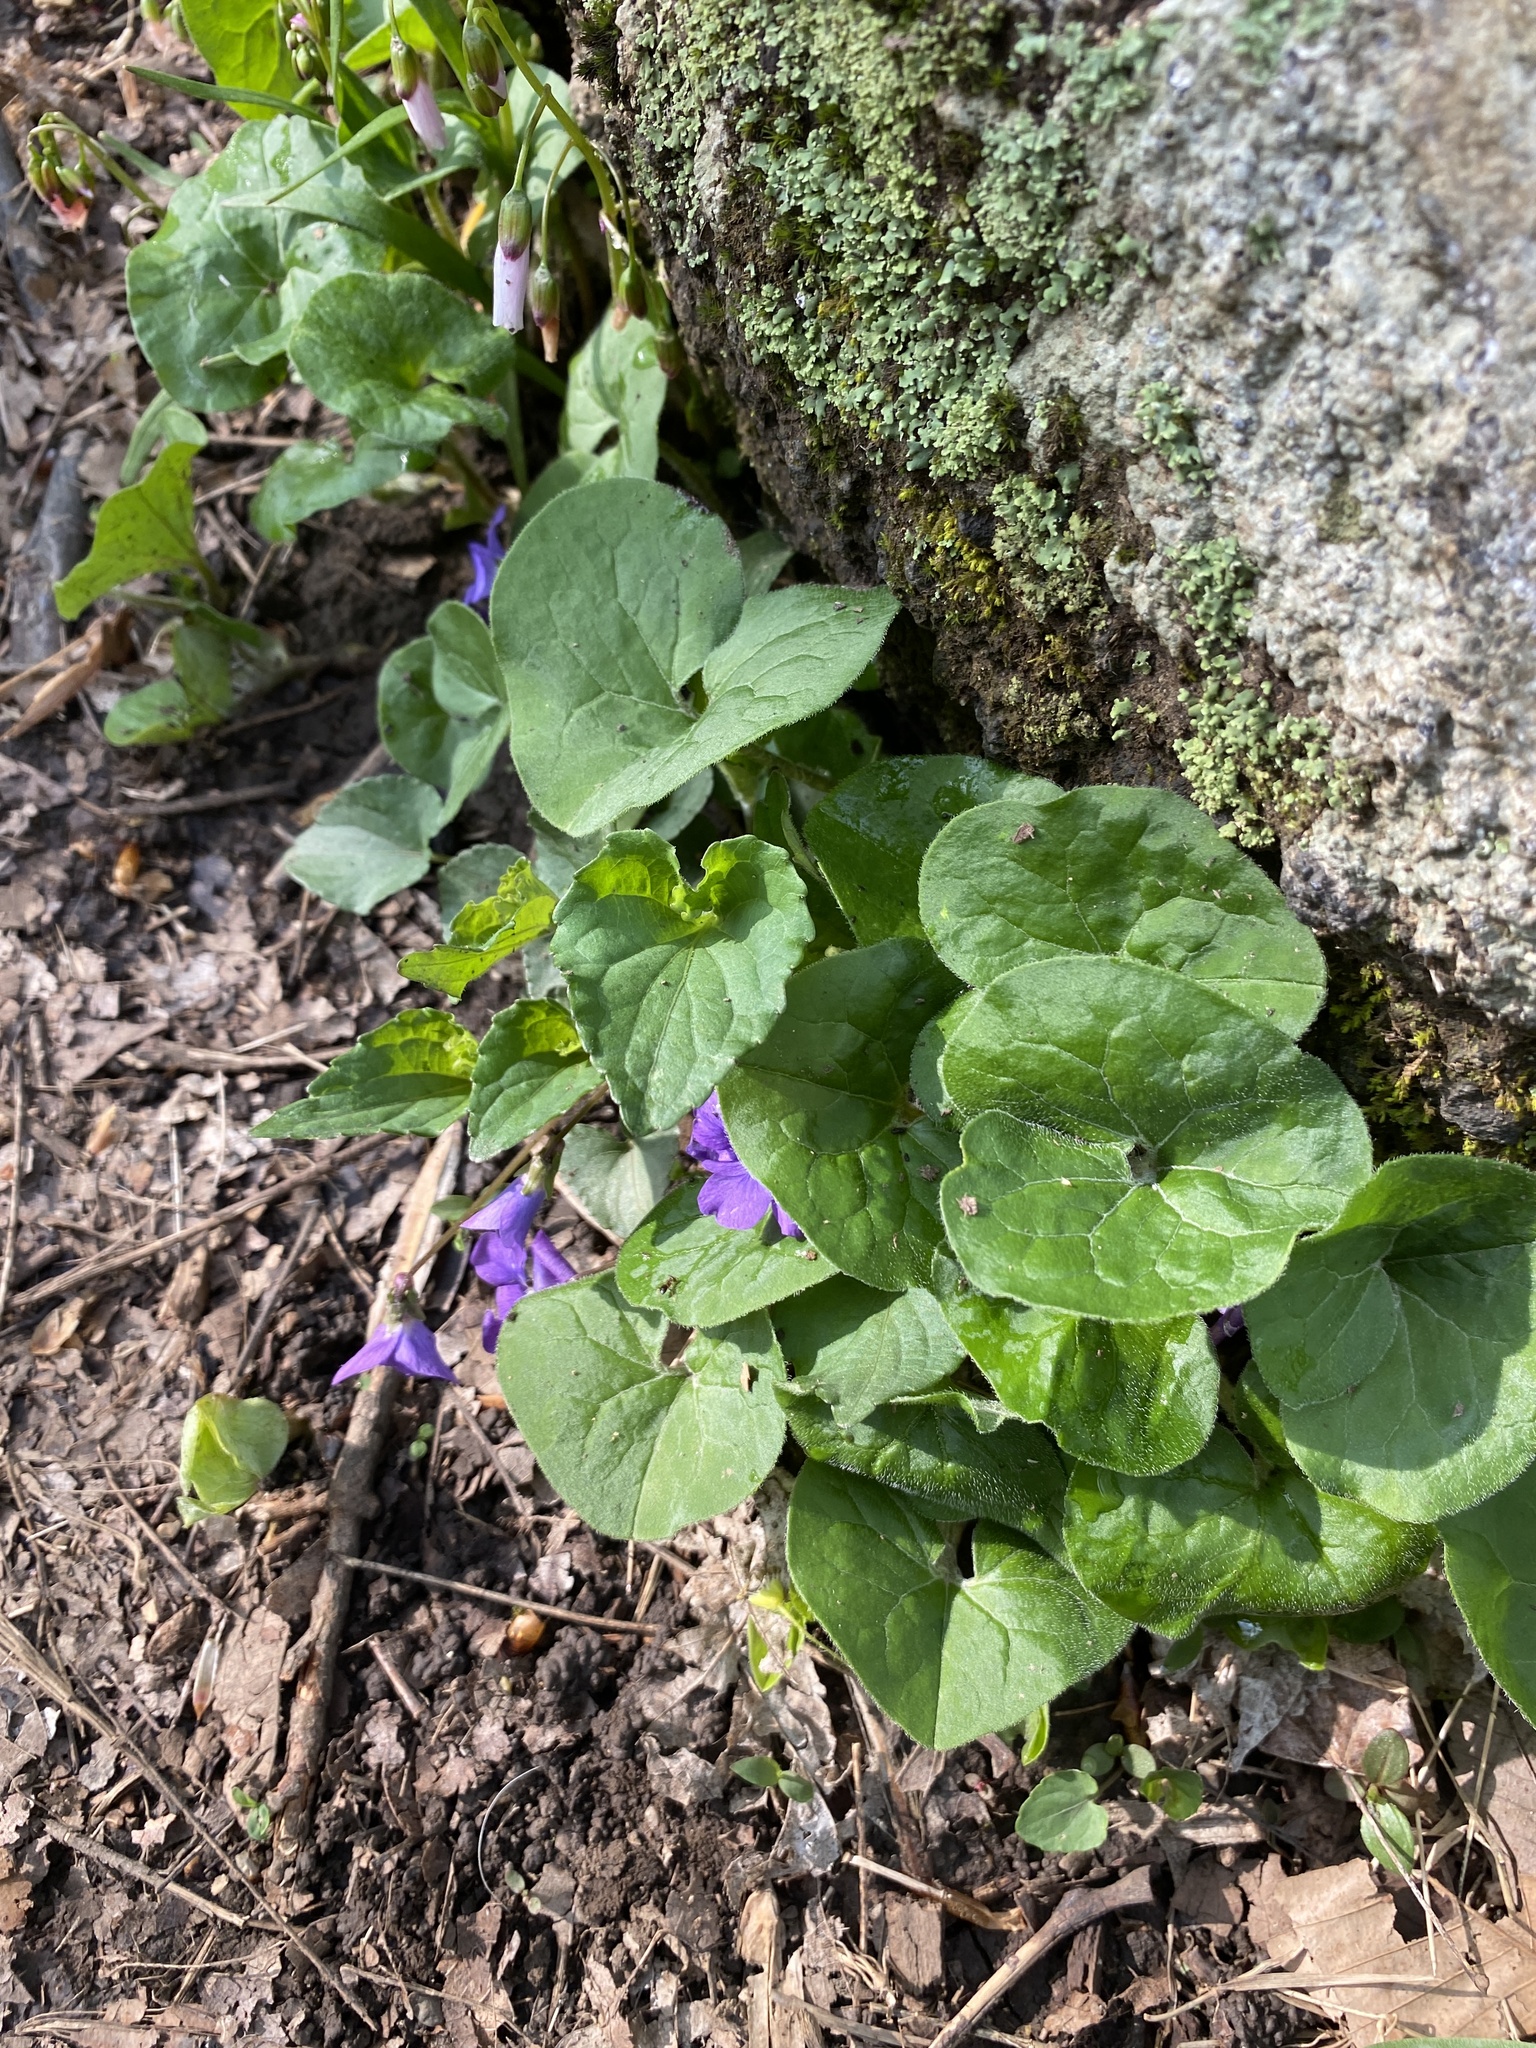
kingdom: Plantae
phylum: Tracheophyta
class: Magnoliopsida
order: Piperales
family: Aristolochiaceae
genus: Asarum
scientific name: Asarum canadense
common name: Wild ginger
